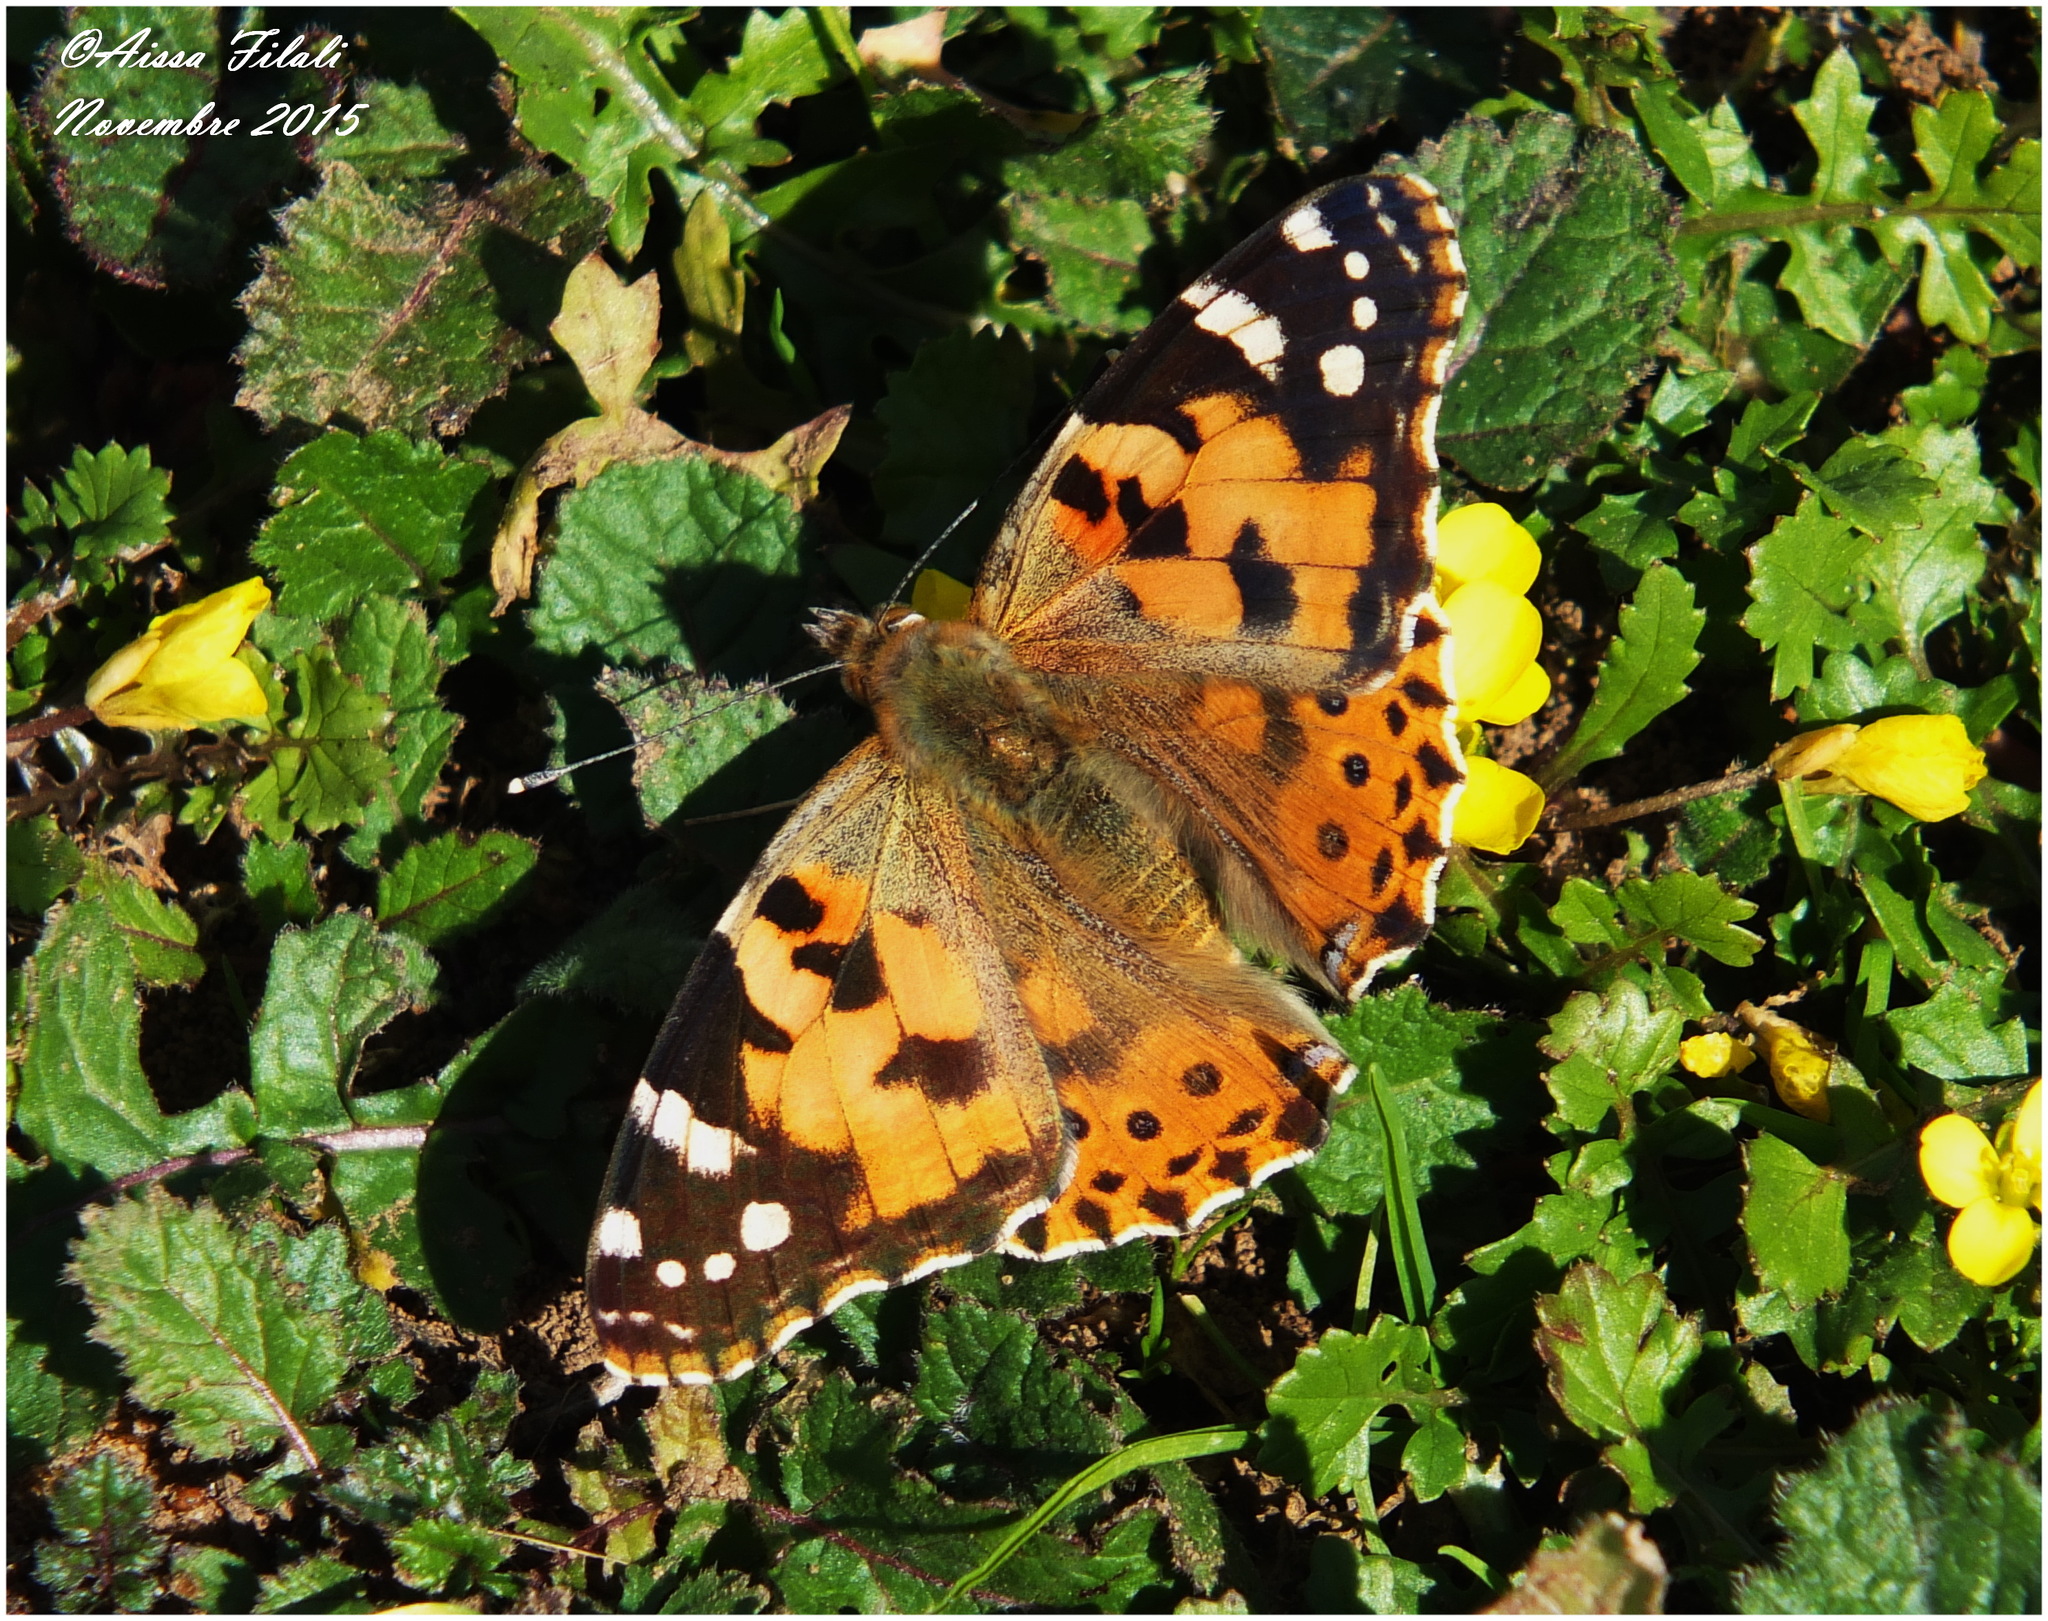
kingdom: Animalia
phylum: Arthropoda
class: Insecta
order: Lepidoptera
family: Nymphalidae
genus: Vanessa
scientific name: Vanessa cardui
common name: Painted lady
